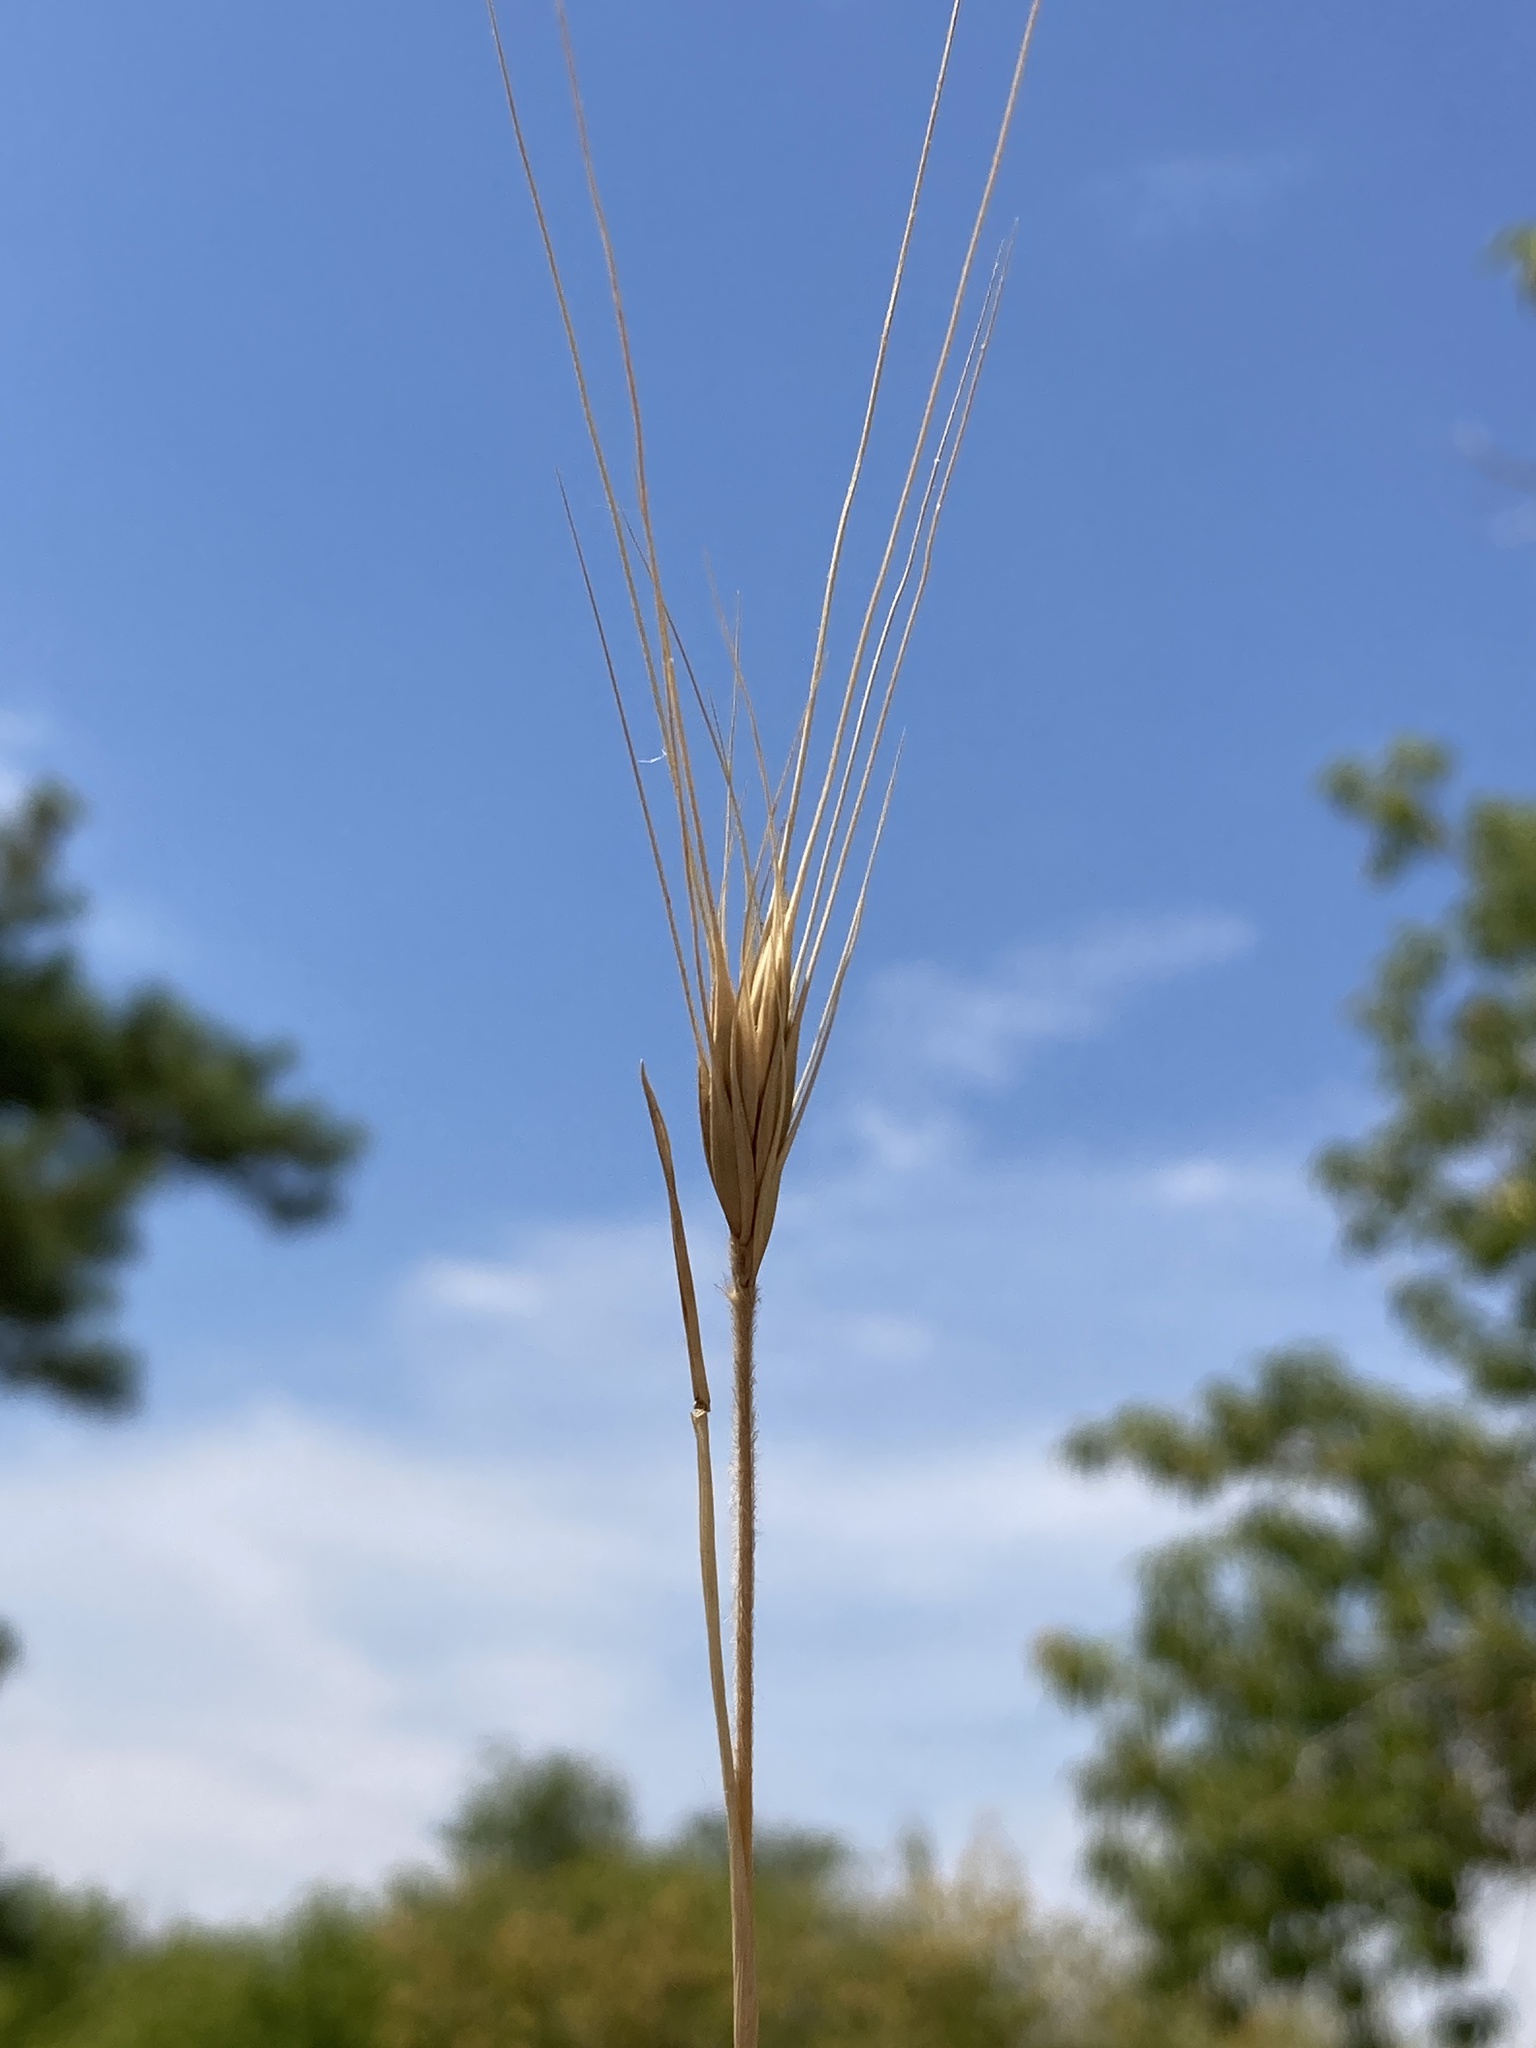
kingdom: Plantae
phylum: Tracheophyta
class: Liliopsida
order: Poales
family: Poaceae
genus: Secale
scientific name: Secale sylvestre
